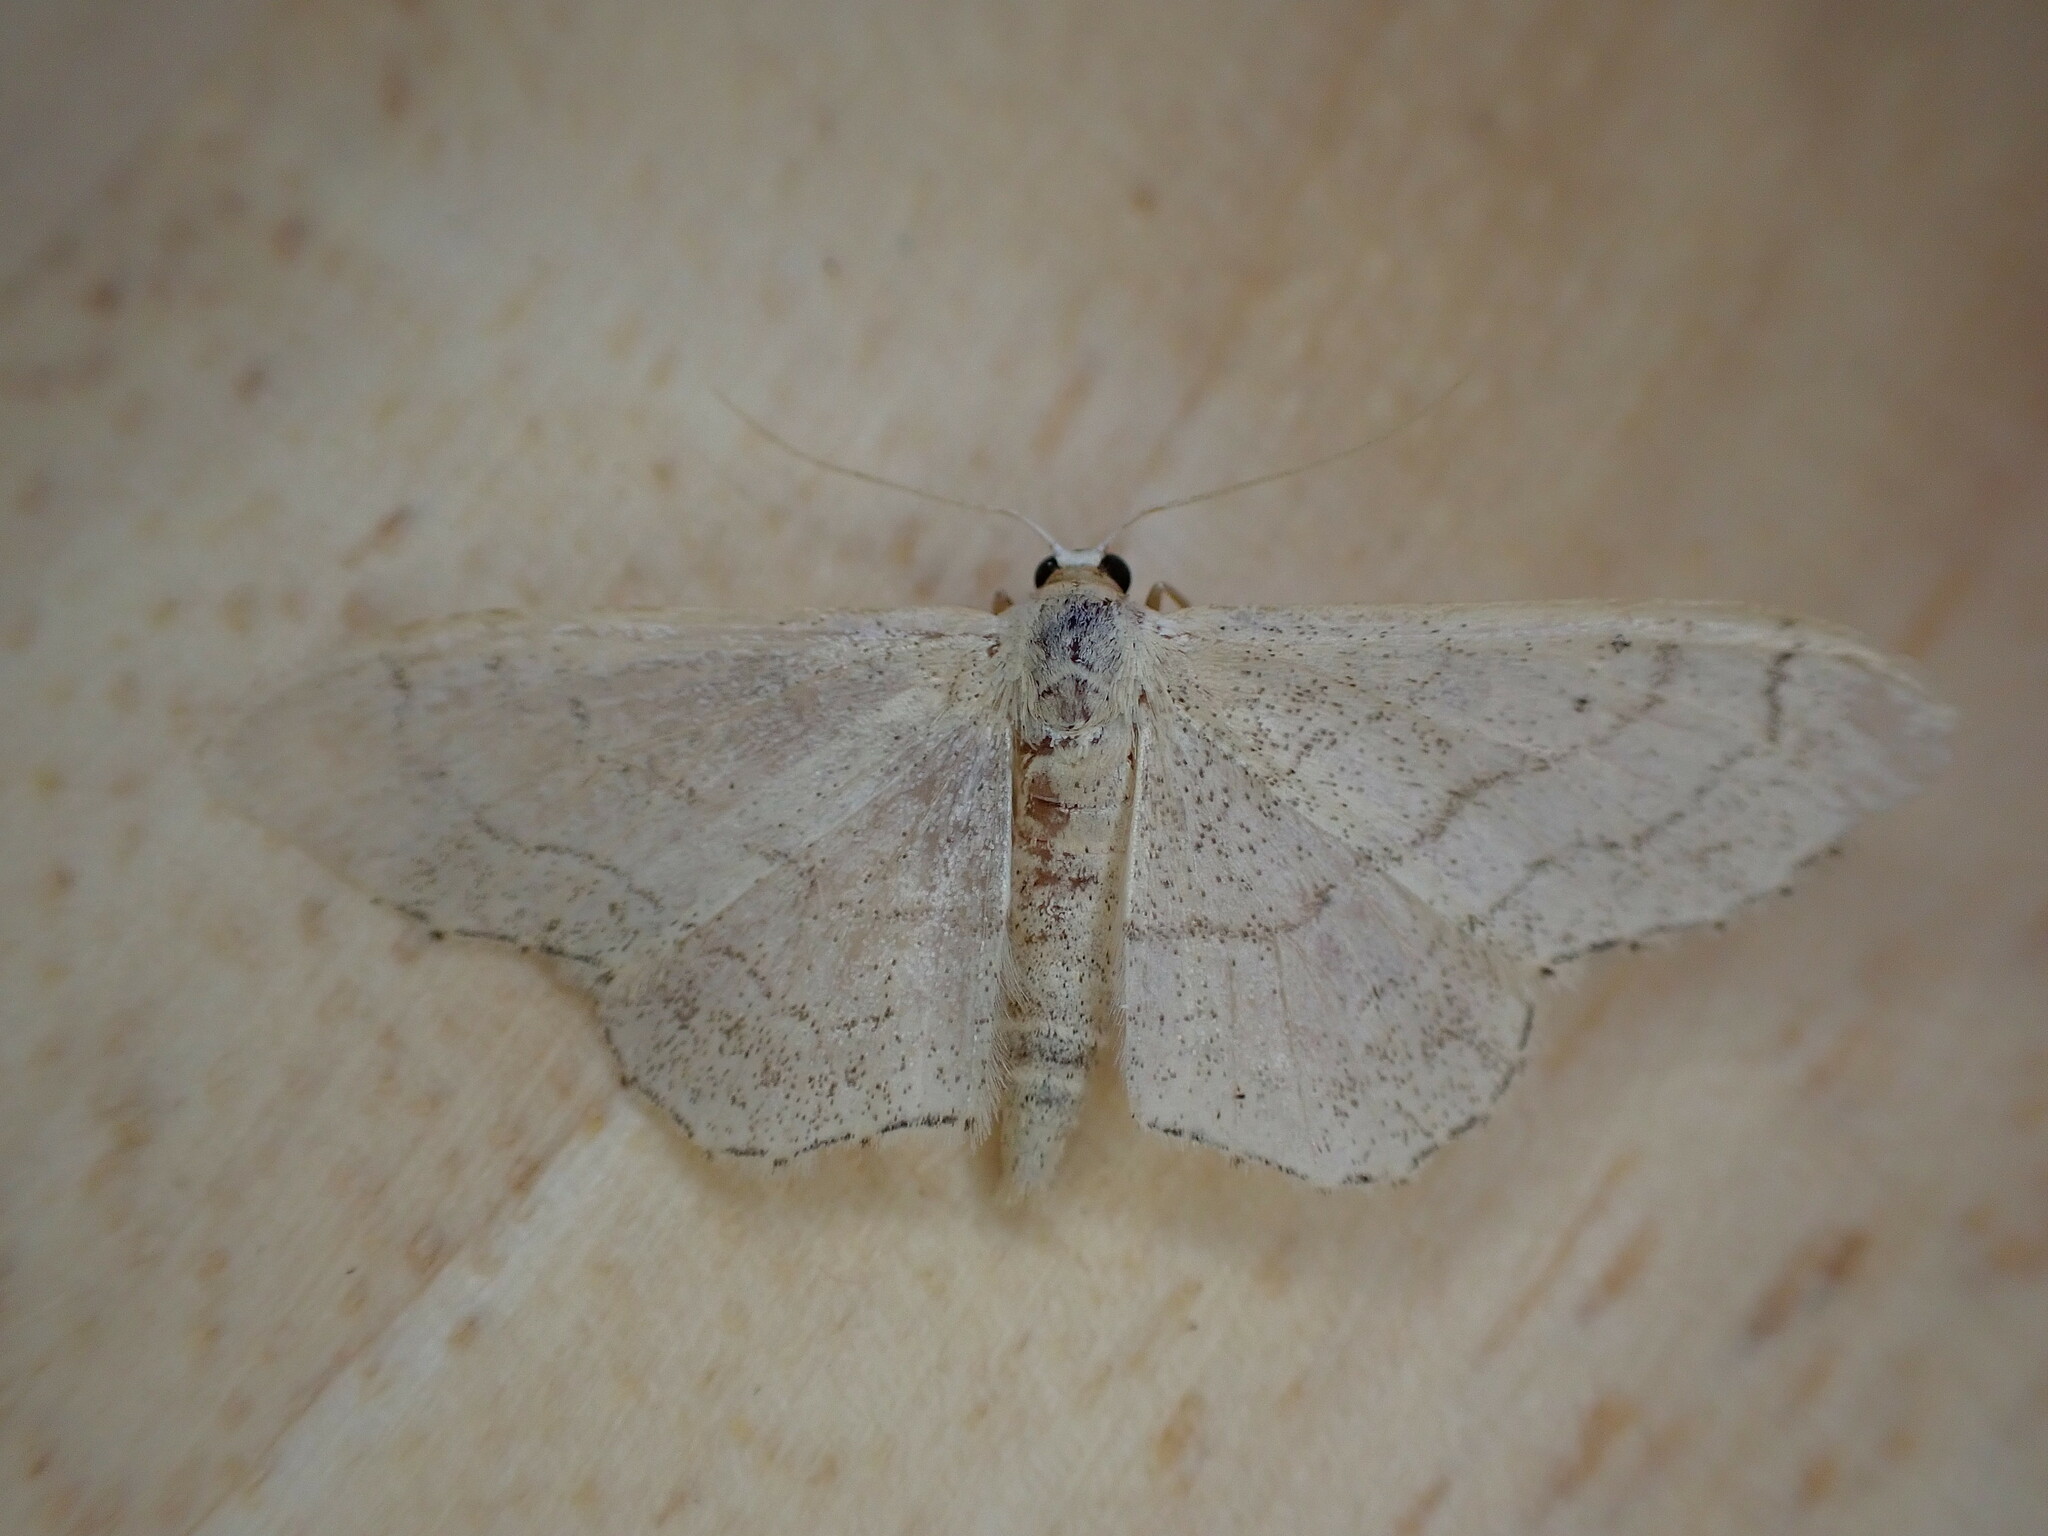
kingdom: Animalia
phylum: Arthropoda
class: Insecta
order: Lepidoptera
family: Geometridae
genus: Idaea
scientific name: Idaea aversata
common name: Riband wave
